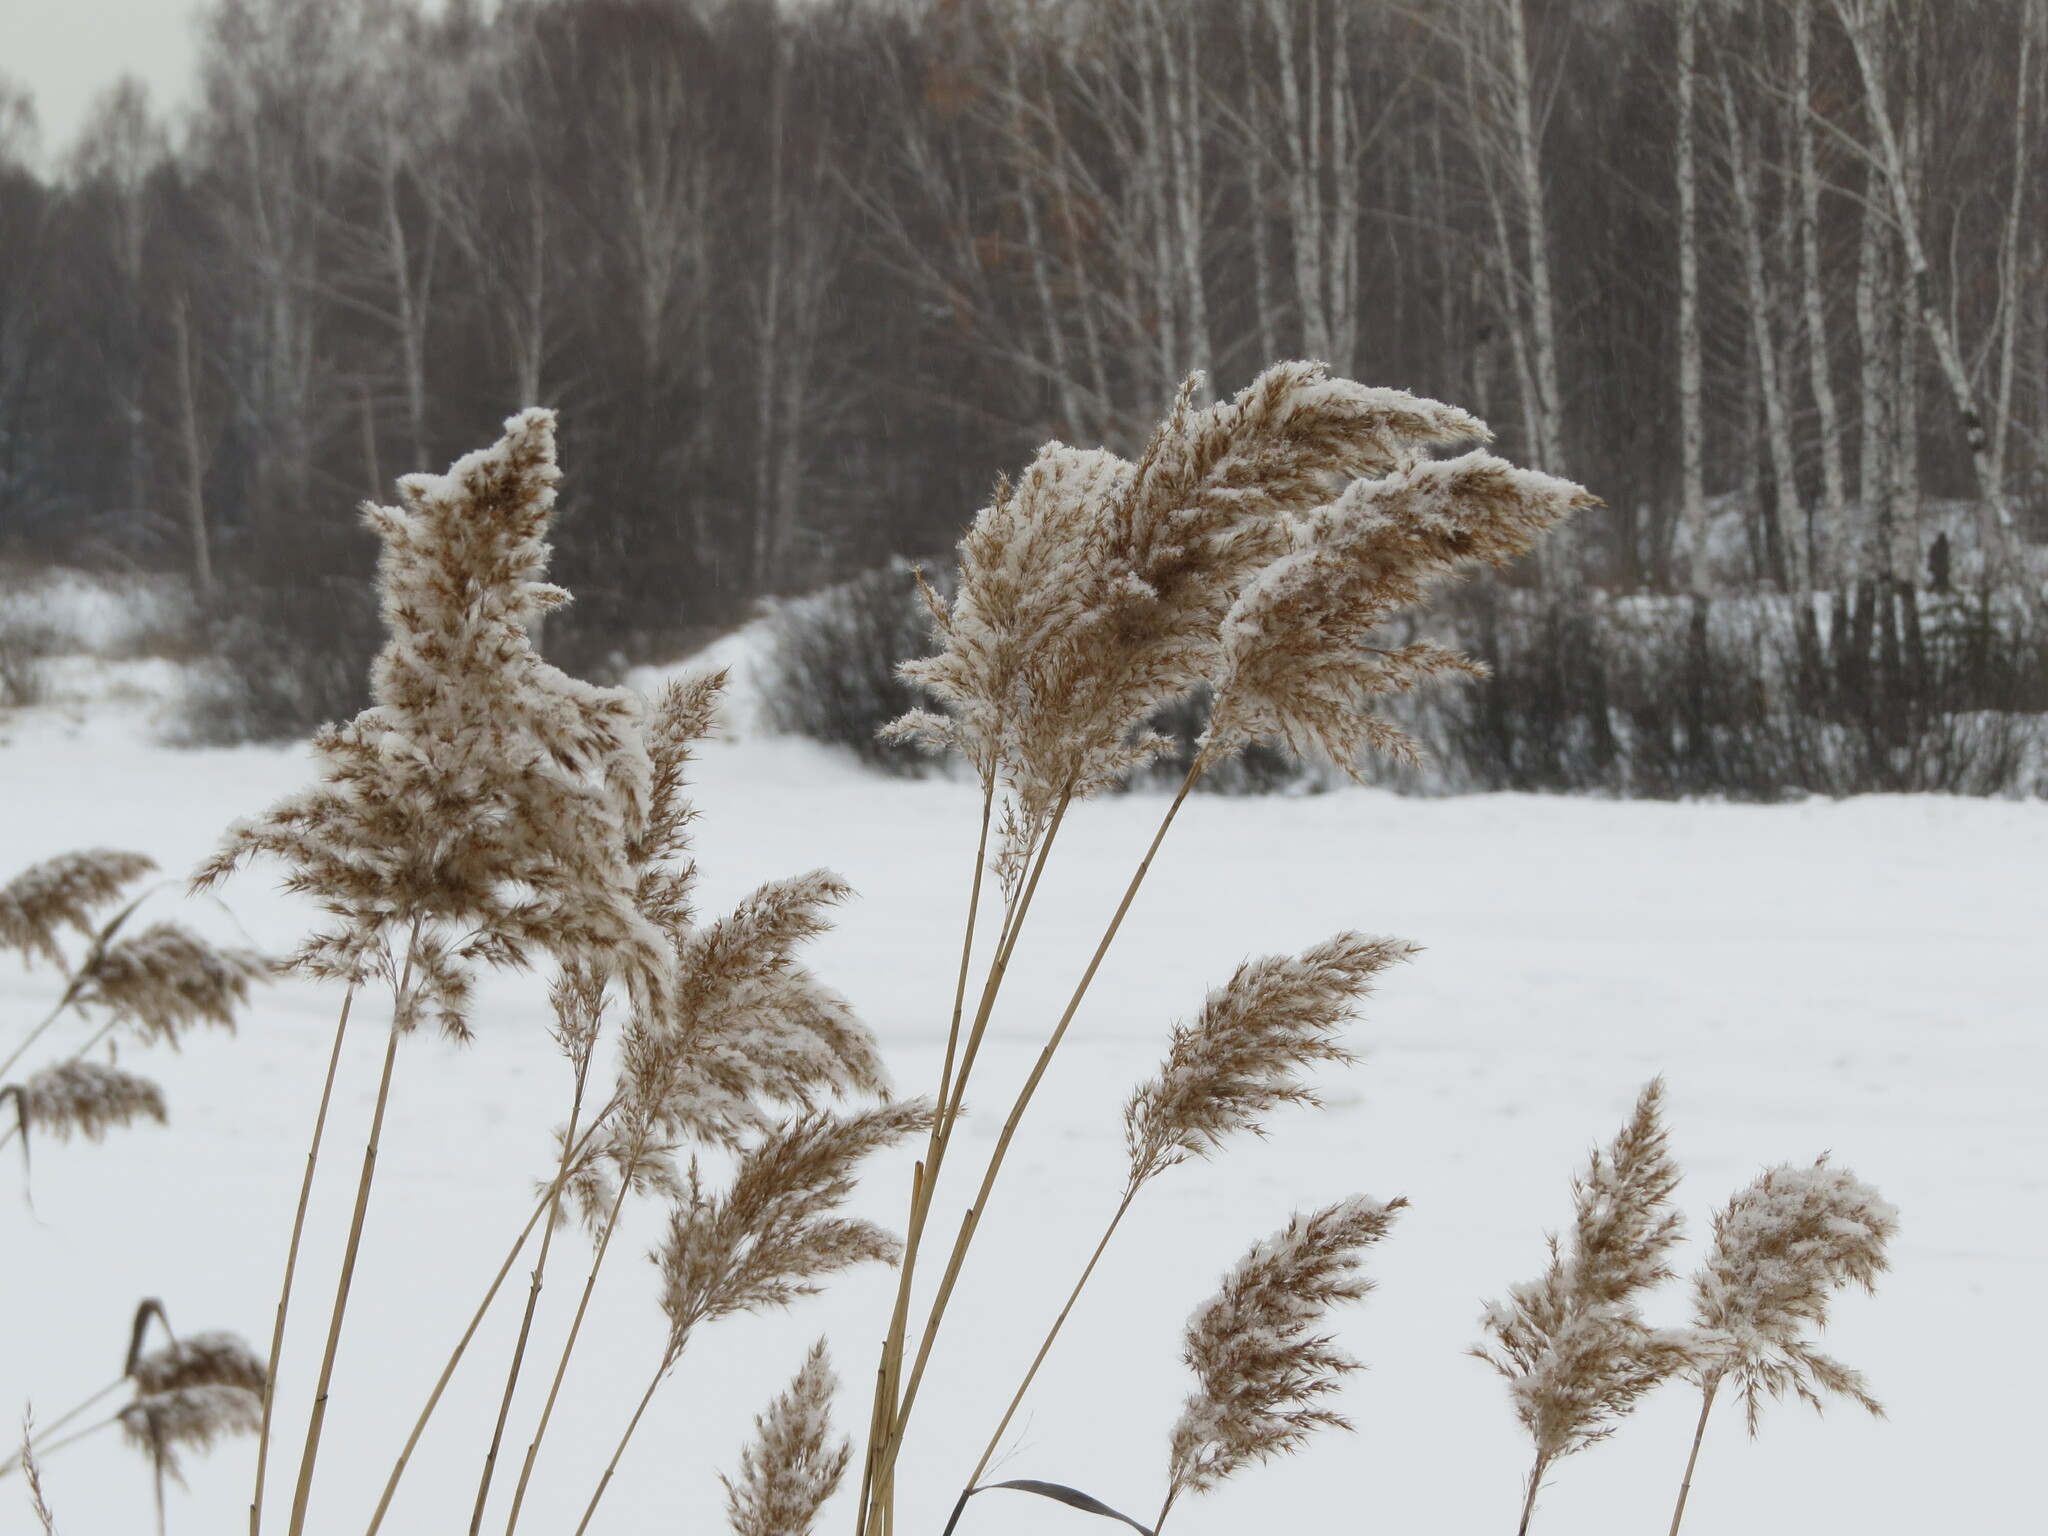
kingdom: Plantae
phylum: Tracheophyta
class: Liliopsida
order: Poales
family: Poaceae
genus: Phragmites
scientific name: Phragmites australis
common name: Common reed
